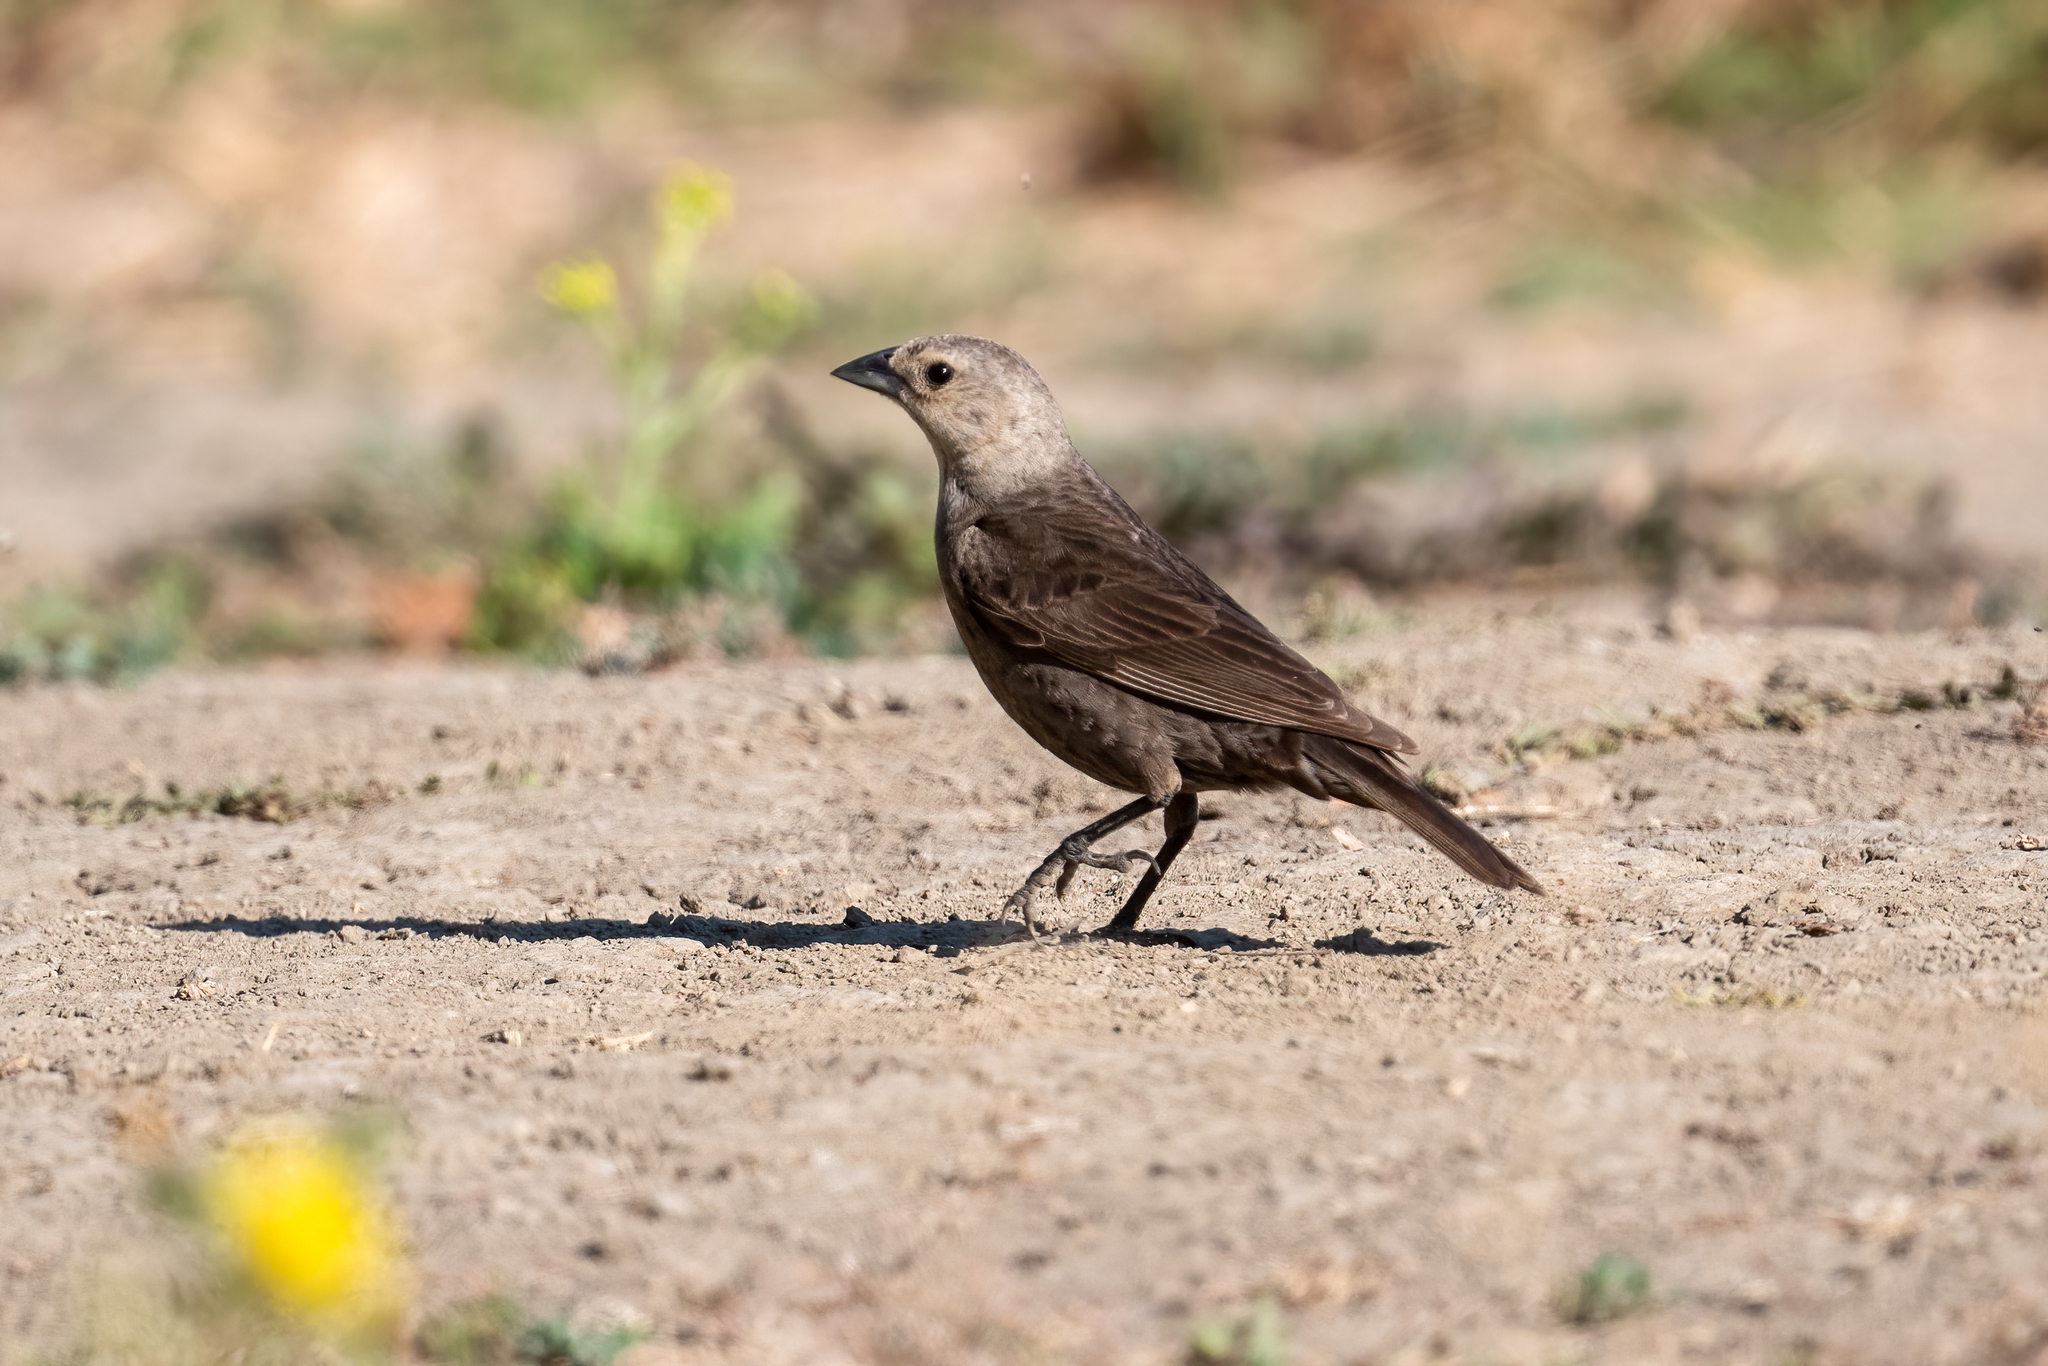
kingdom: Animalia
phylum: Chordata
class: Aves
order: Passeriformes
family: Icteridae
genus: Molothrus
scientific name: Molothrus ater
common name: Brown-headed cowbird
